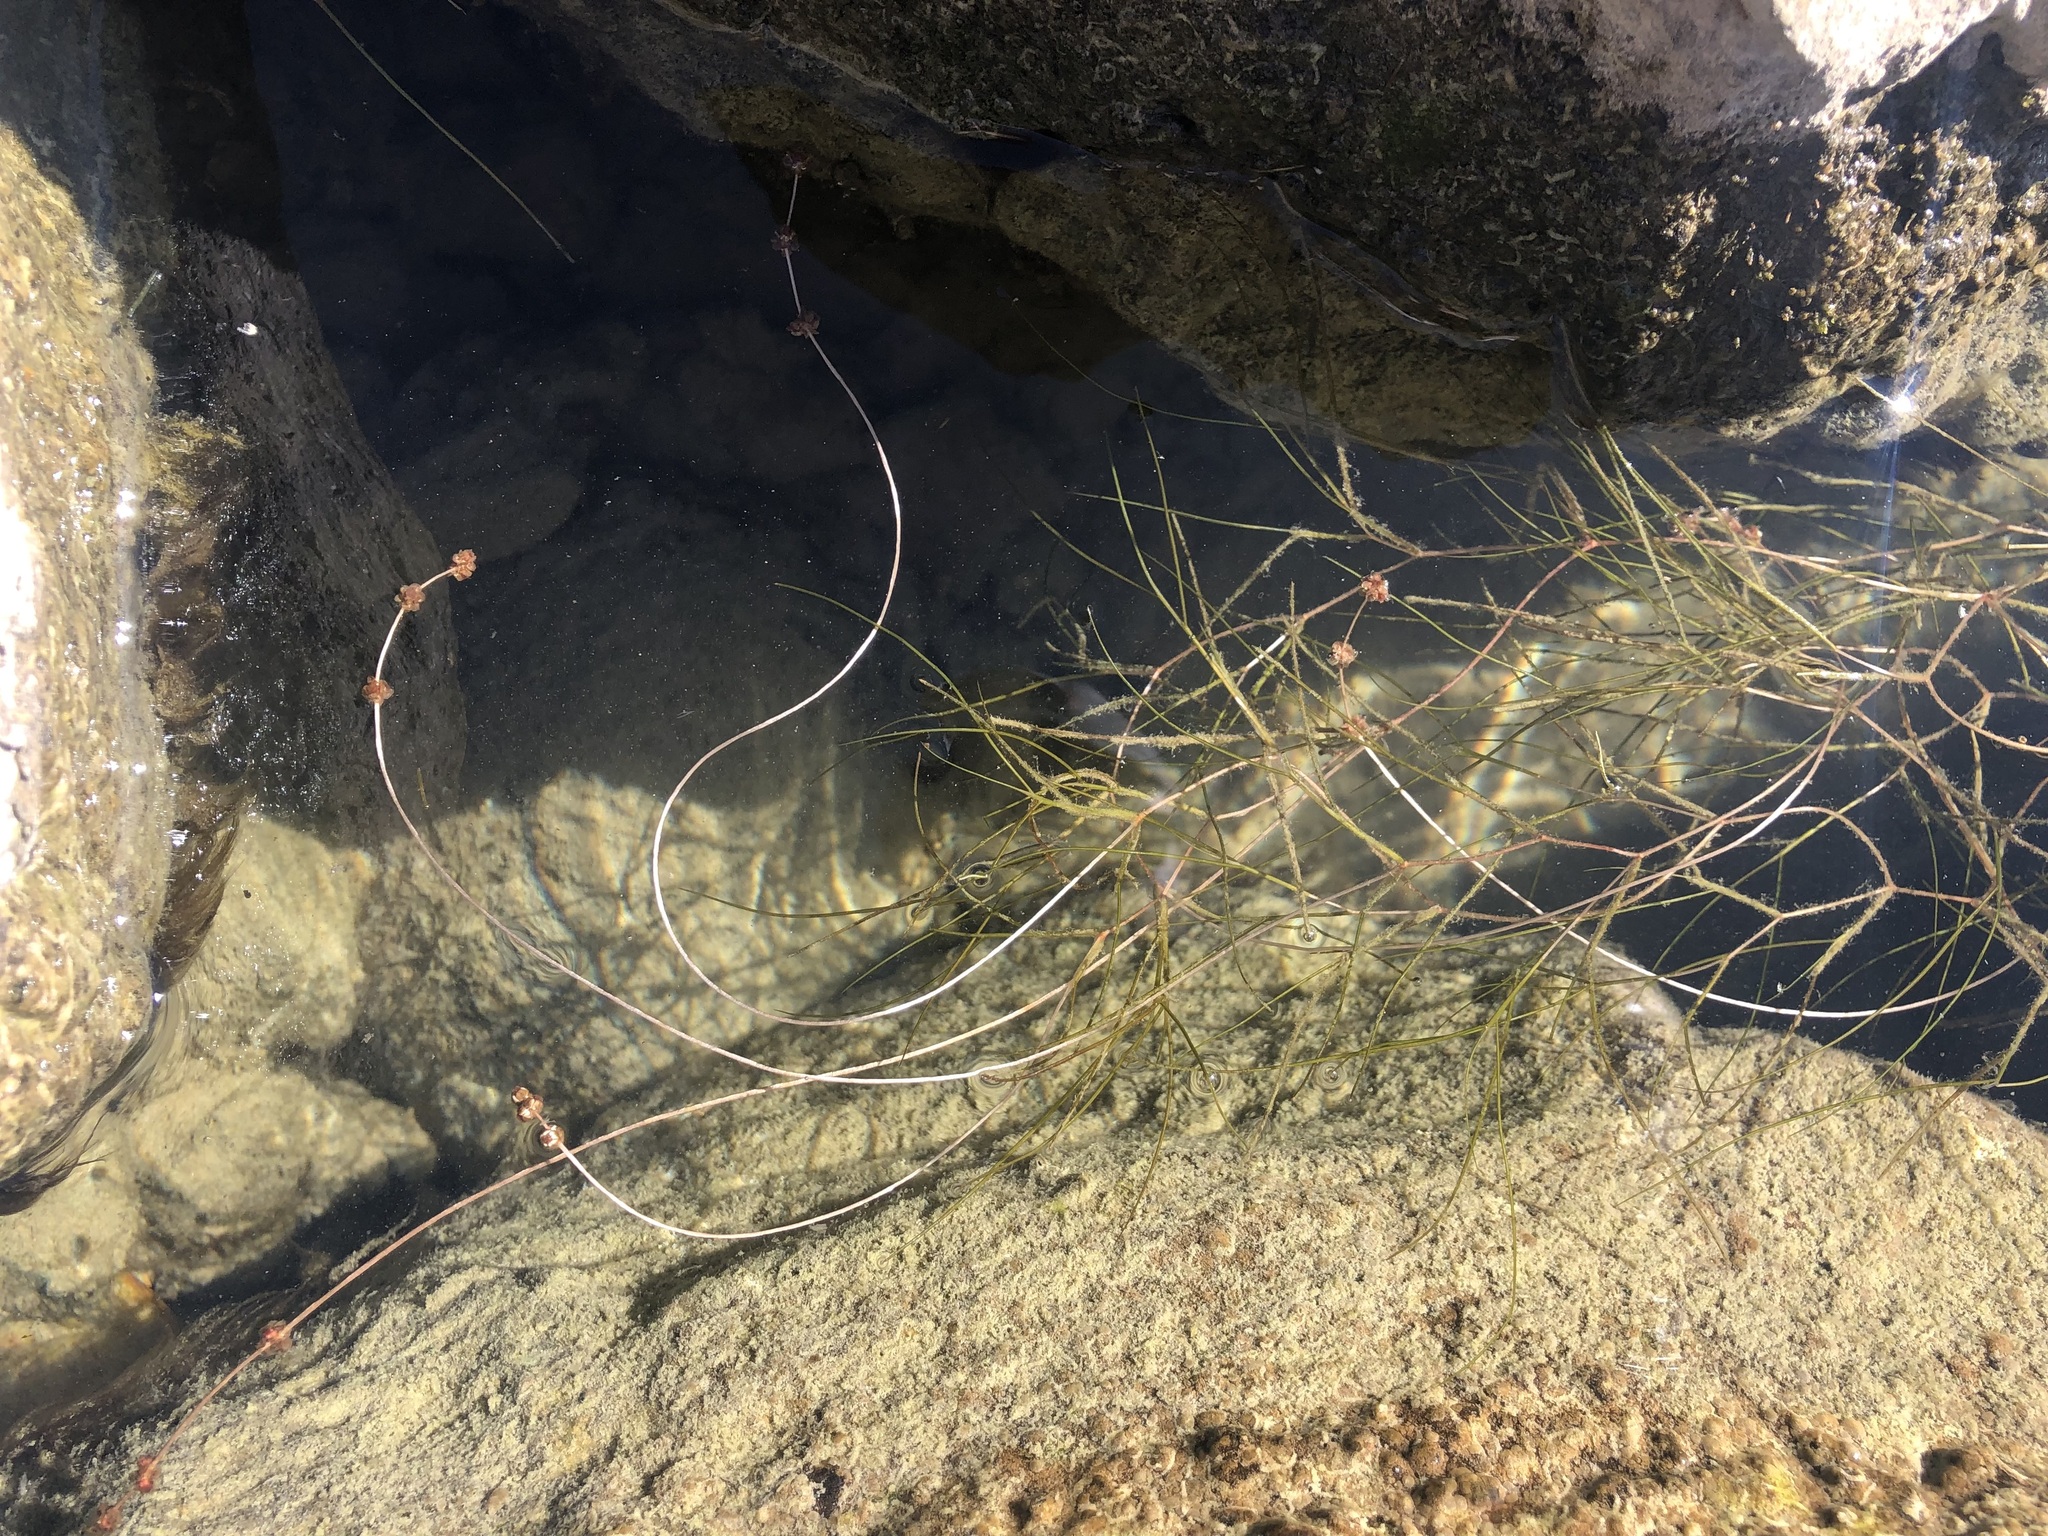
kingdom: Plantae
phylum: Tracheophyta
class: Liliopsida
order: Alismatales
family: Potamogetonaceae
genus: Stuckenia
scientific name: Stuckenia pectinata
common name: Sago pondweed
